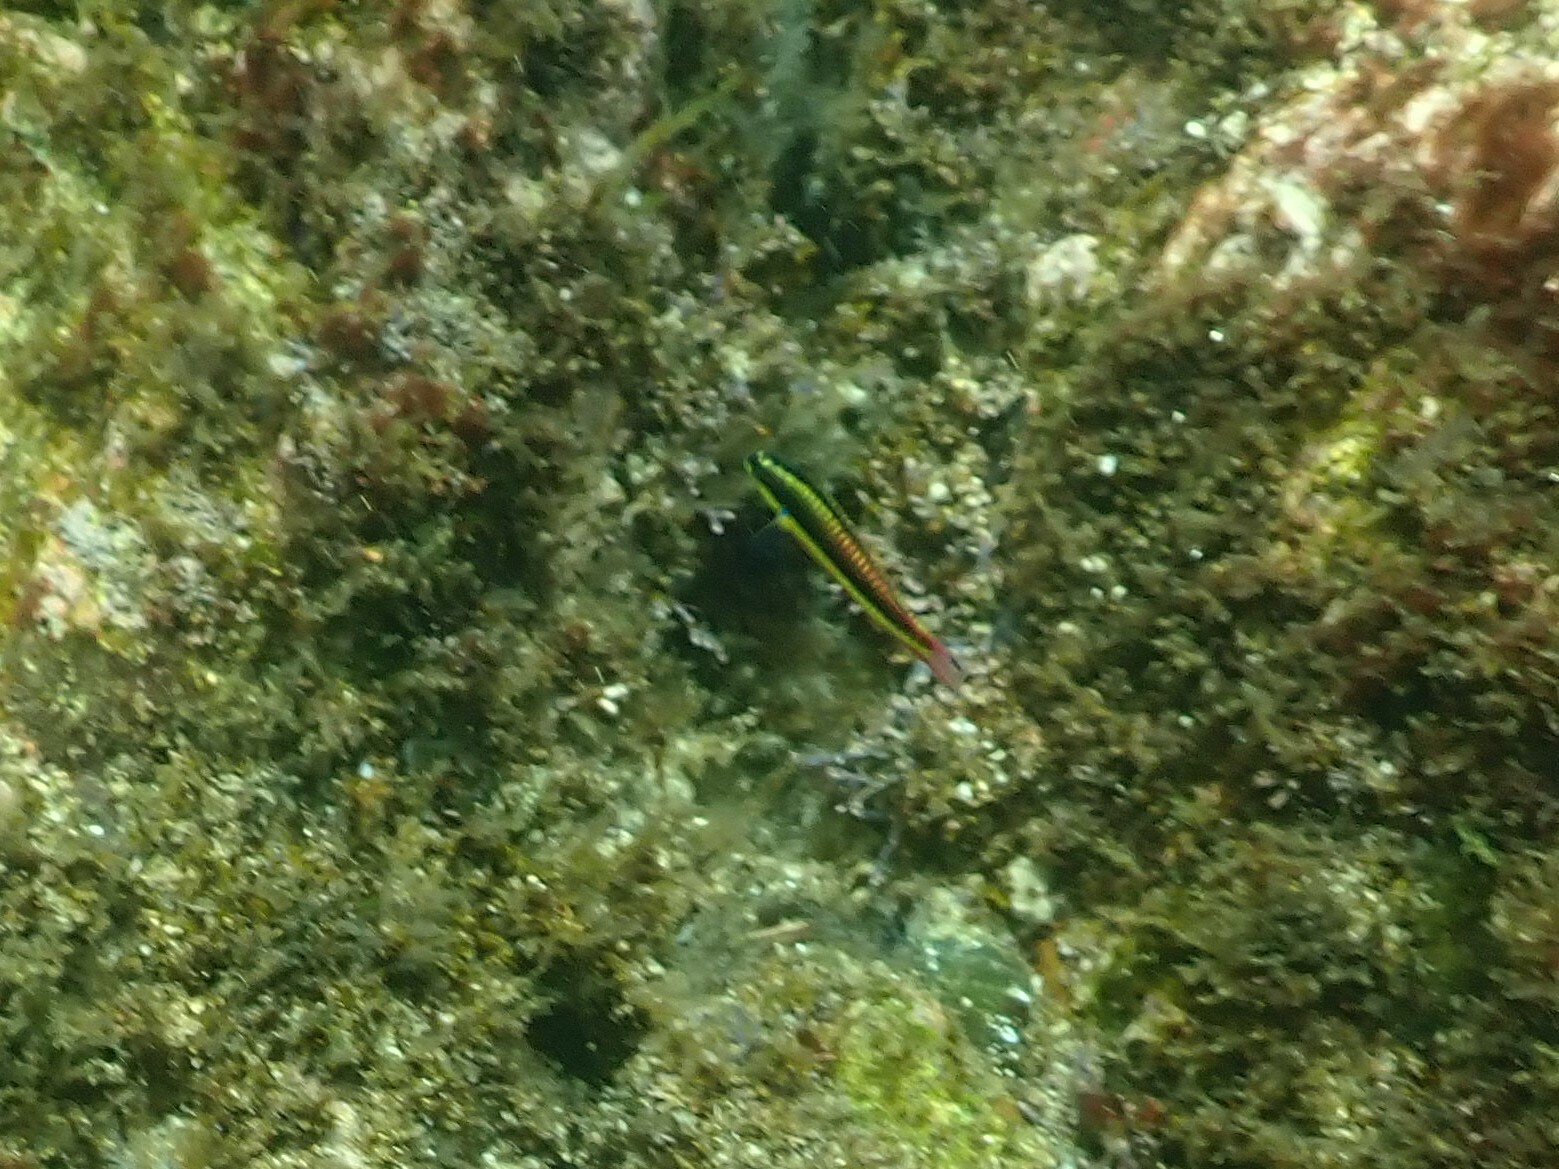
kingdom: Animalia
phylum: Chordata
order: Perciformes
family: Labridae
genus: Thalassoma
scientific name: Thalassoma lucasanum
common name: Cortez rainbow wrasse
